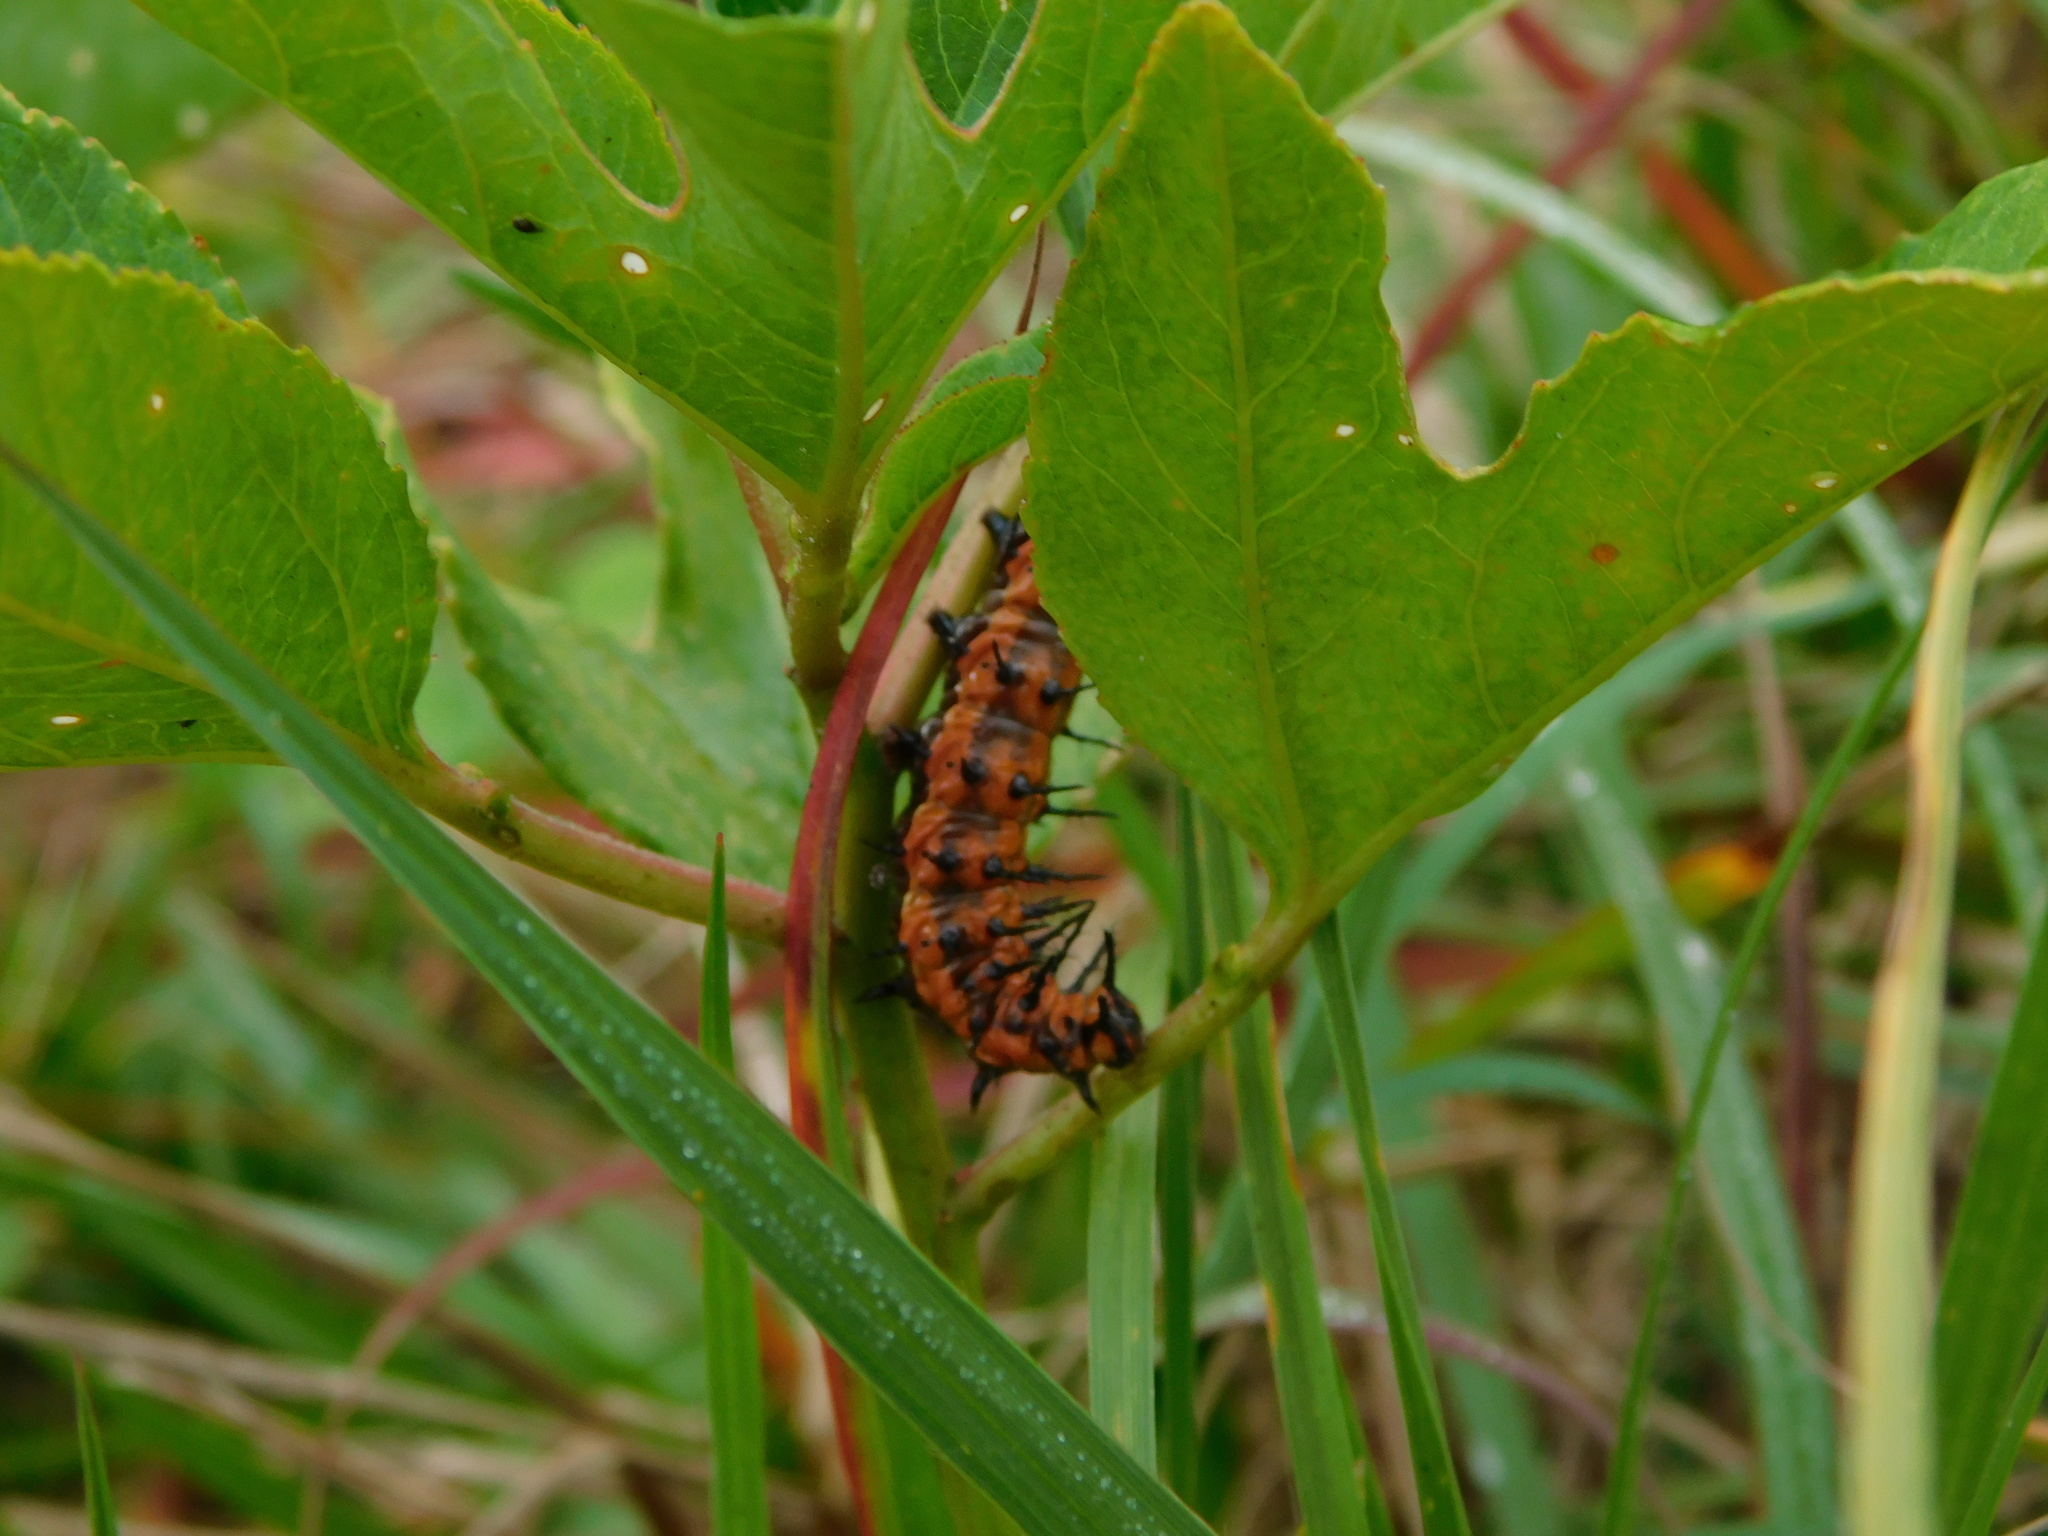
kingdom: Animalia
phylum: Arthropoda
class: Insecta
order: Lepidoptera
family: Nymphalidae
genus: Dione
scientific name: Dione vanillae
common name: Gulf fritillary
